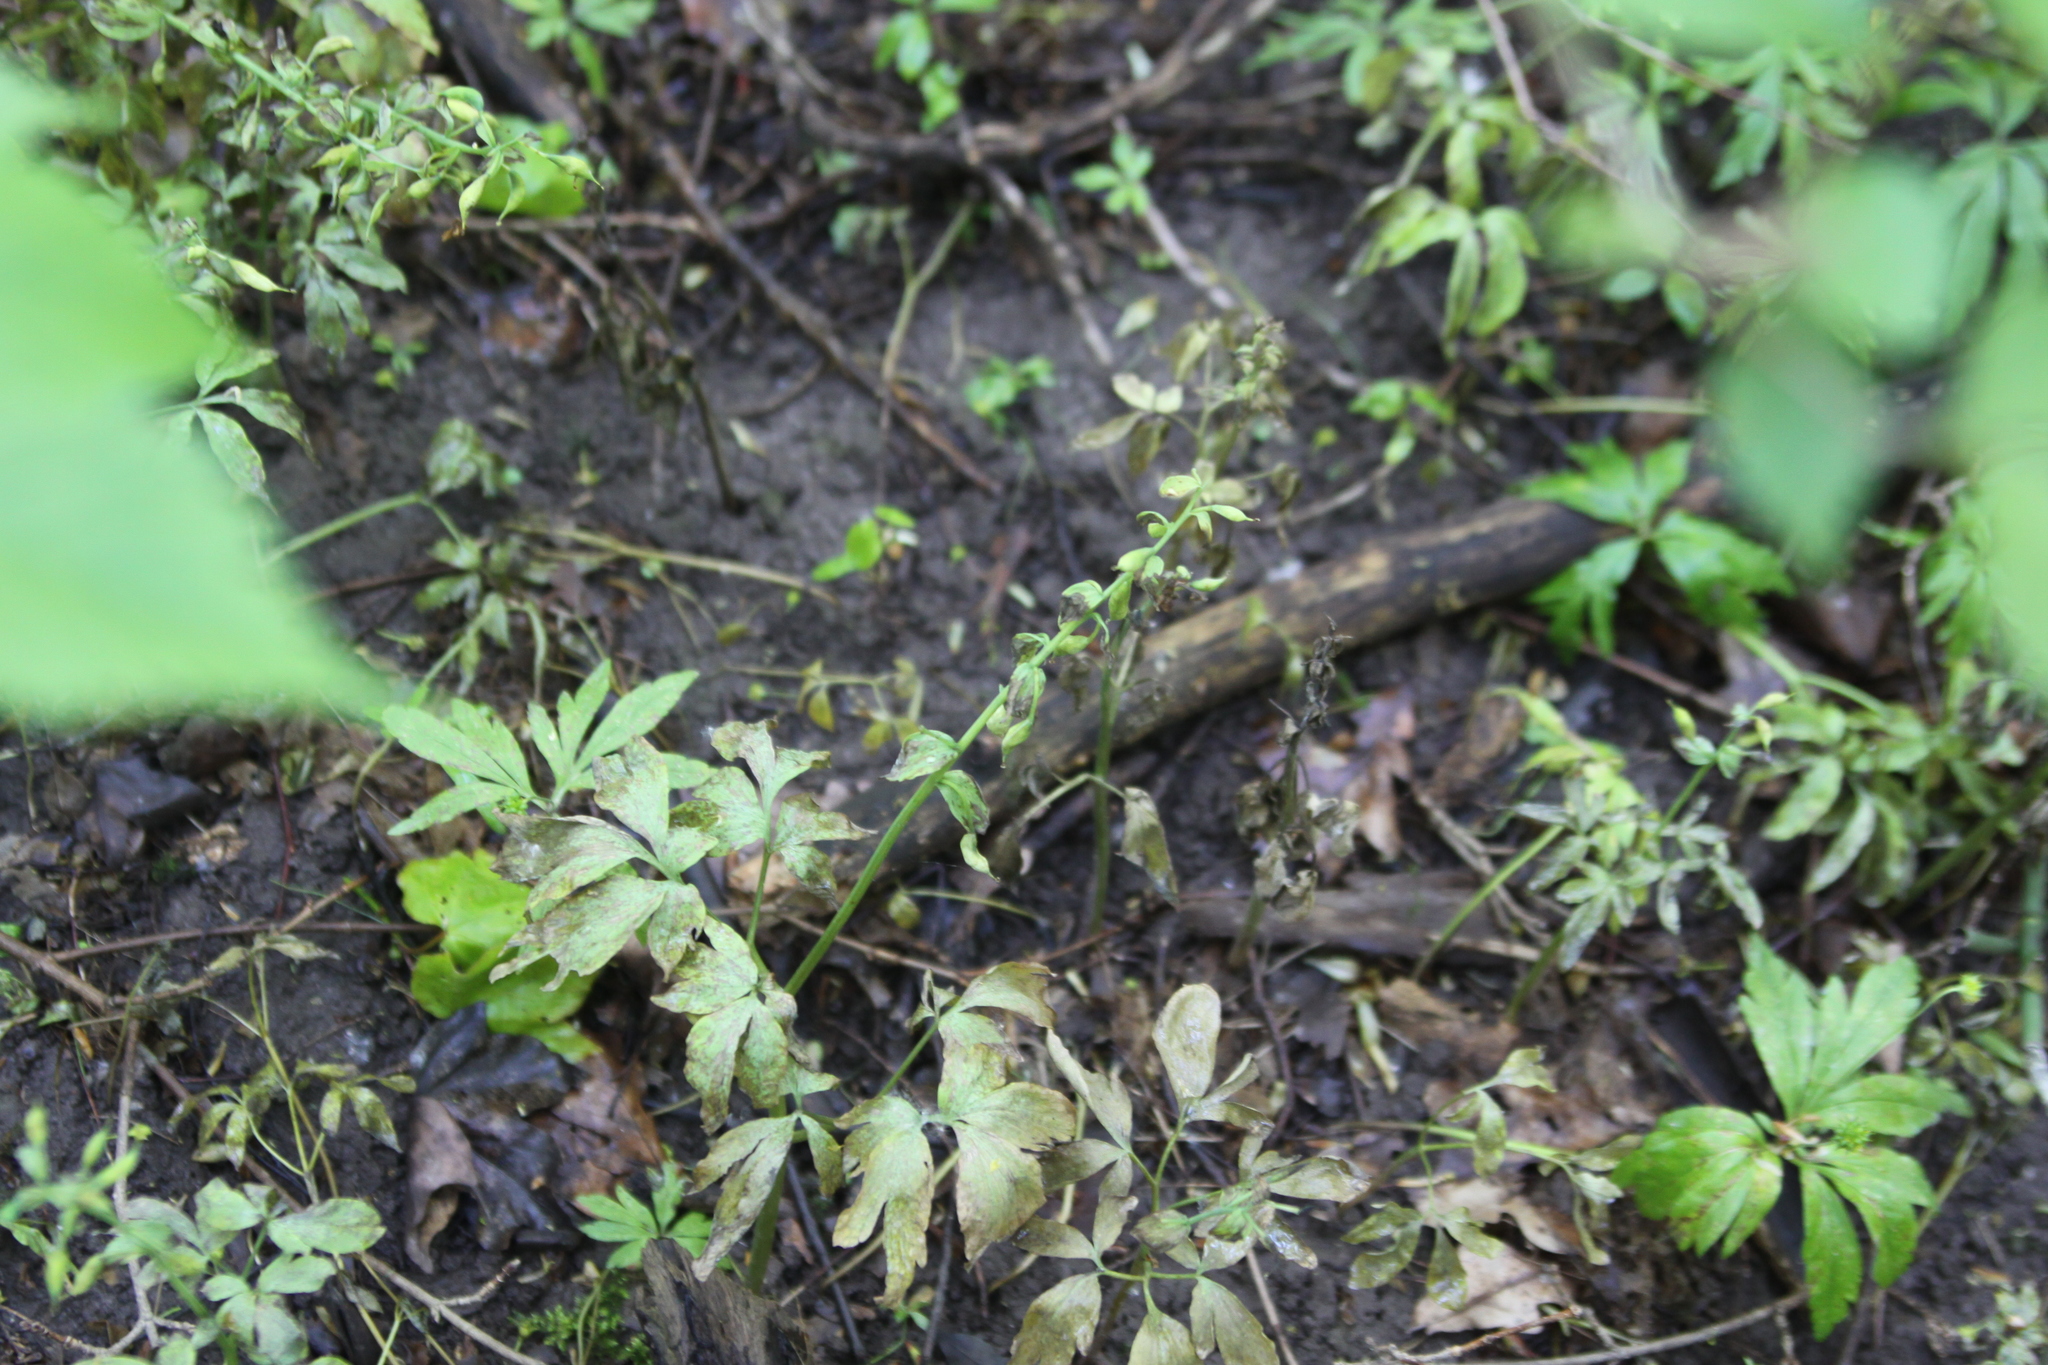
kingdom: Plantae
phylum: Tracheophyta
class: Magnoliopsida
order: Ranunculales
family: Papaveraceae
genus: Corydalis
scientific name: Corydalis solida
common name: Bird-in-a-bush
